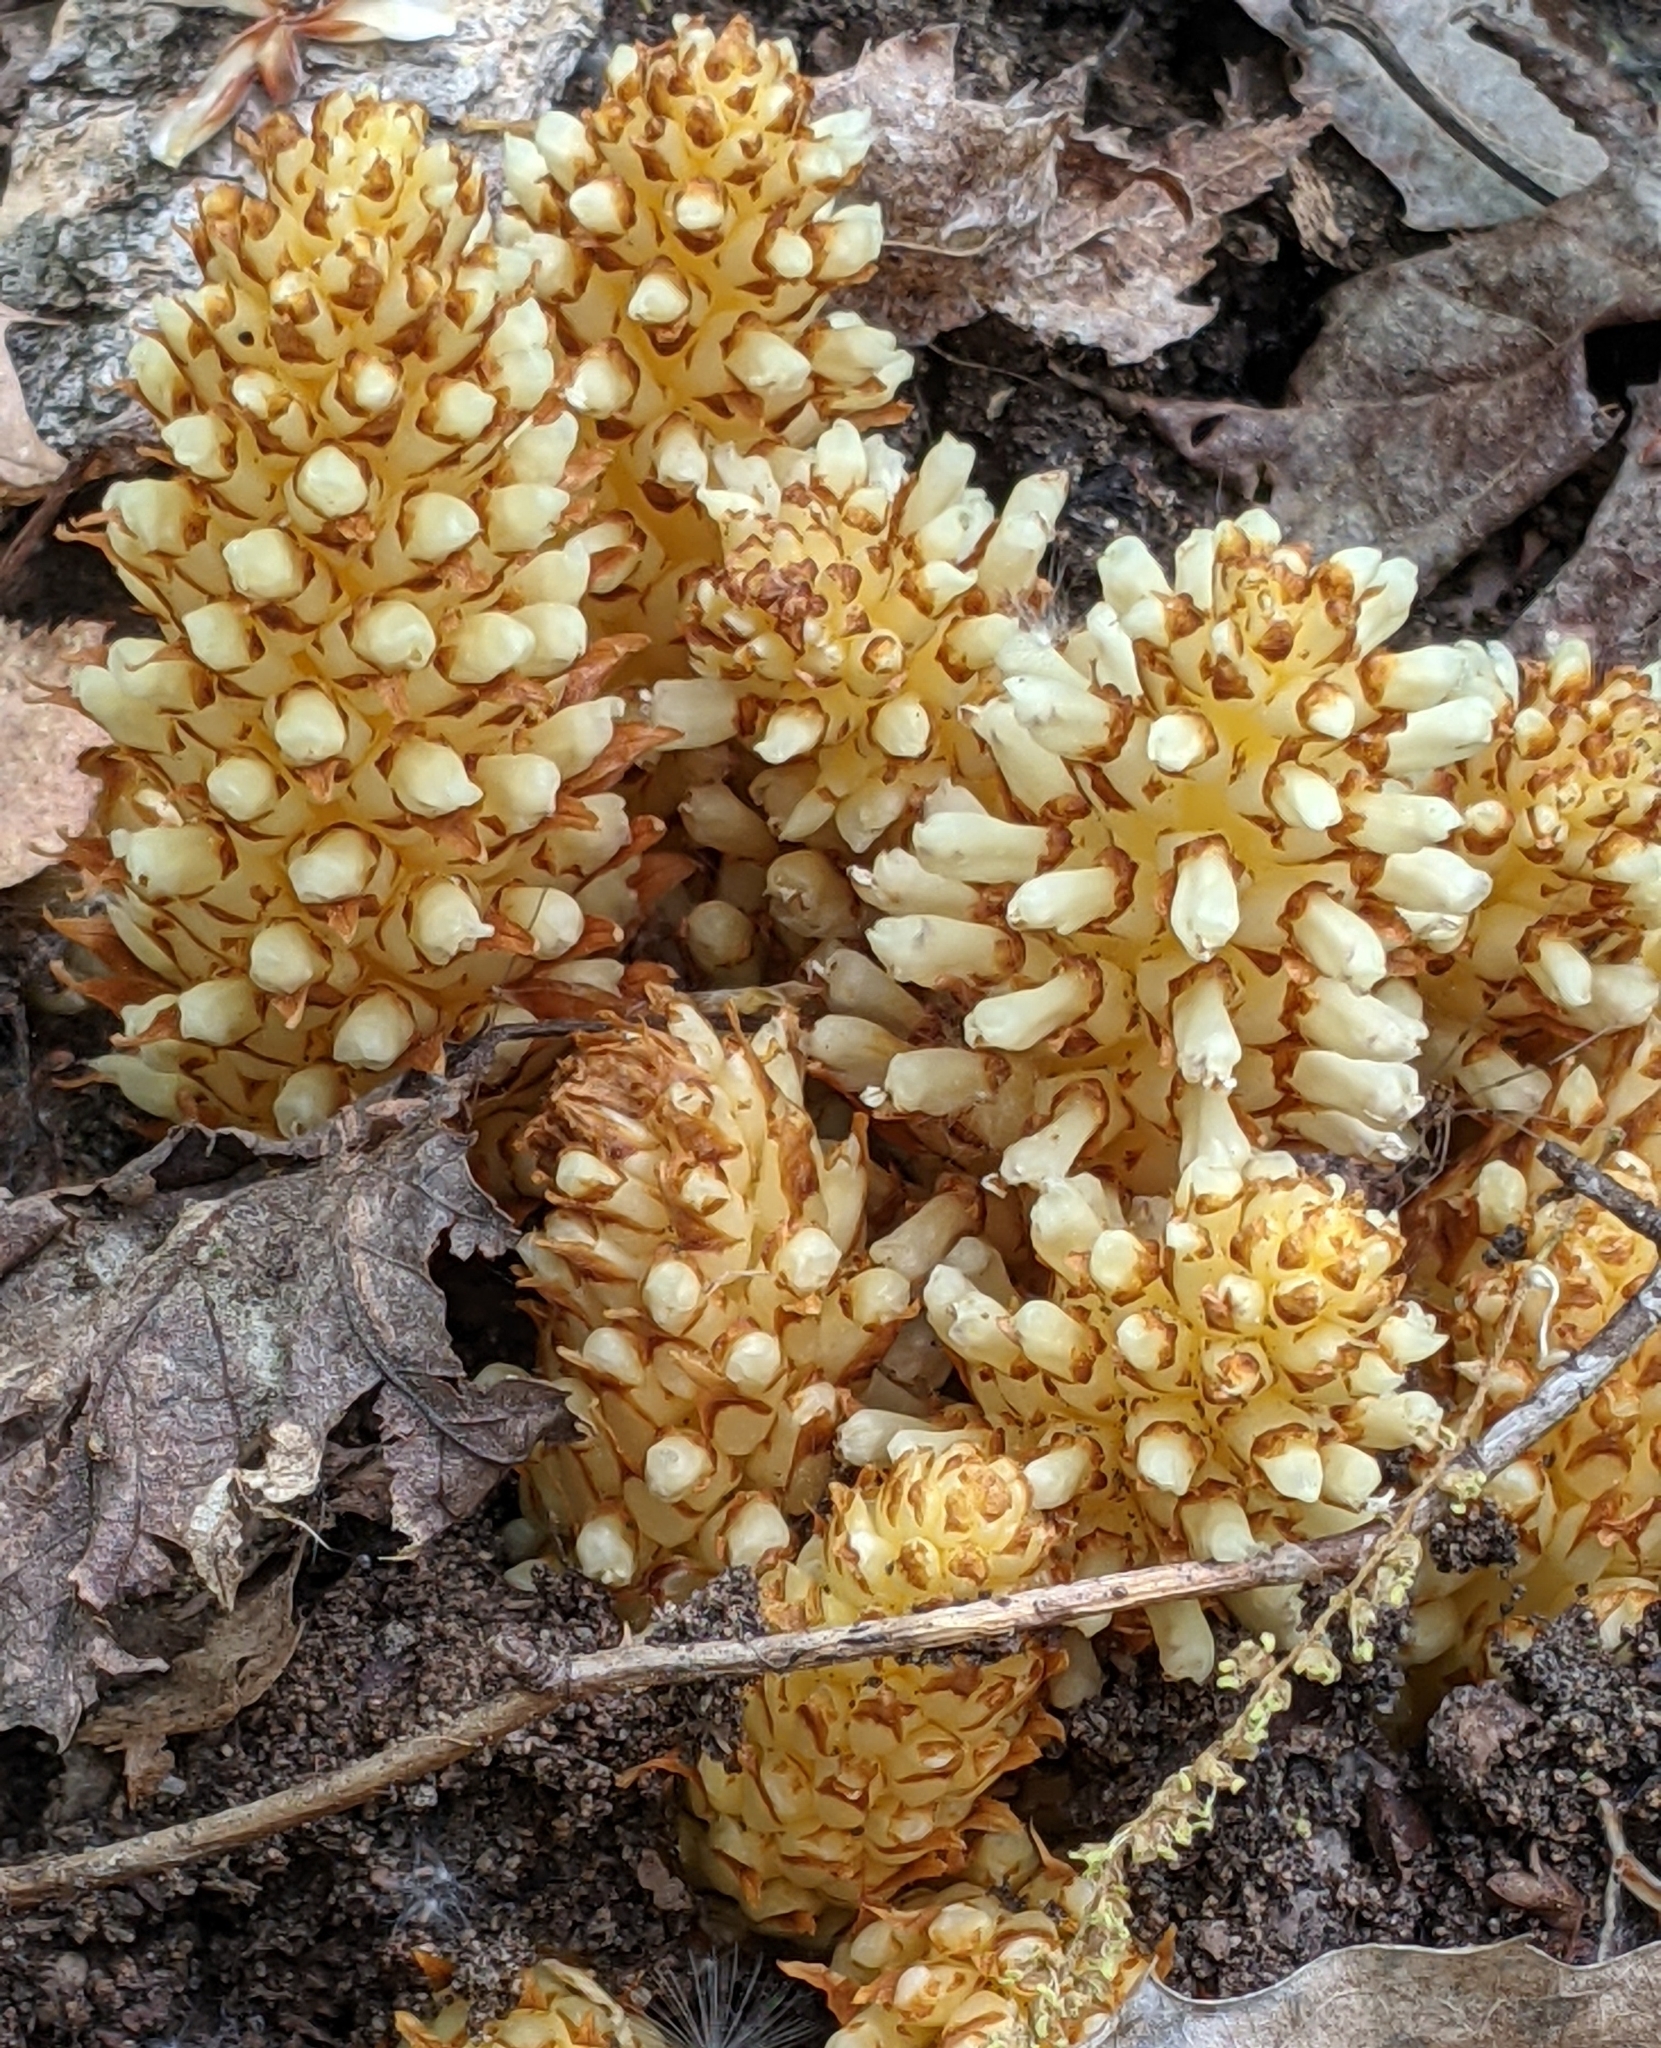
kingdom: Plantae
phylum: Tracheophyta
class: Magnoliopsida
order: Lamiales
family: Orobanchaceae
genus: Conopholis
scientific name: Conopholis americana
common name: American cancer-root
